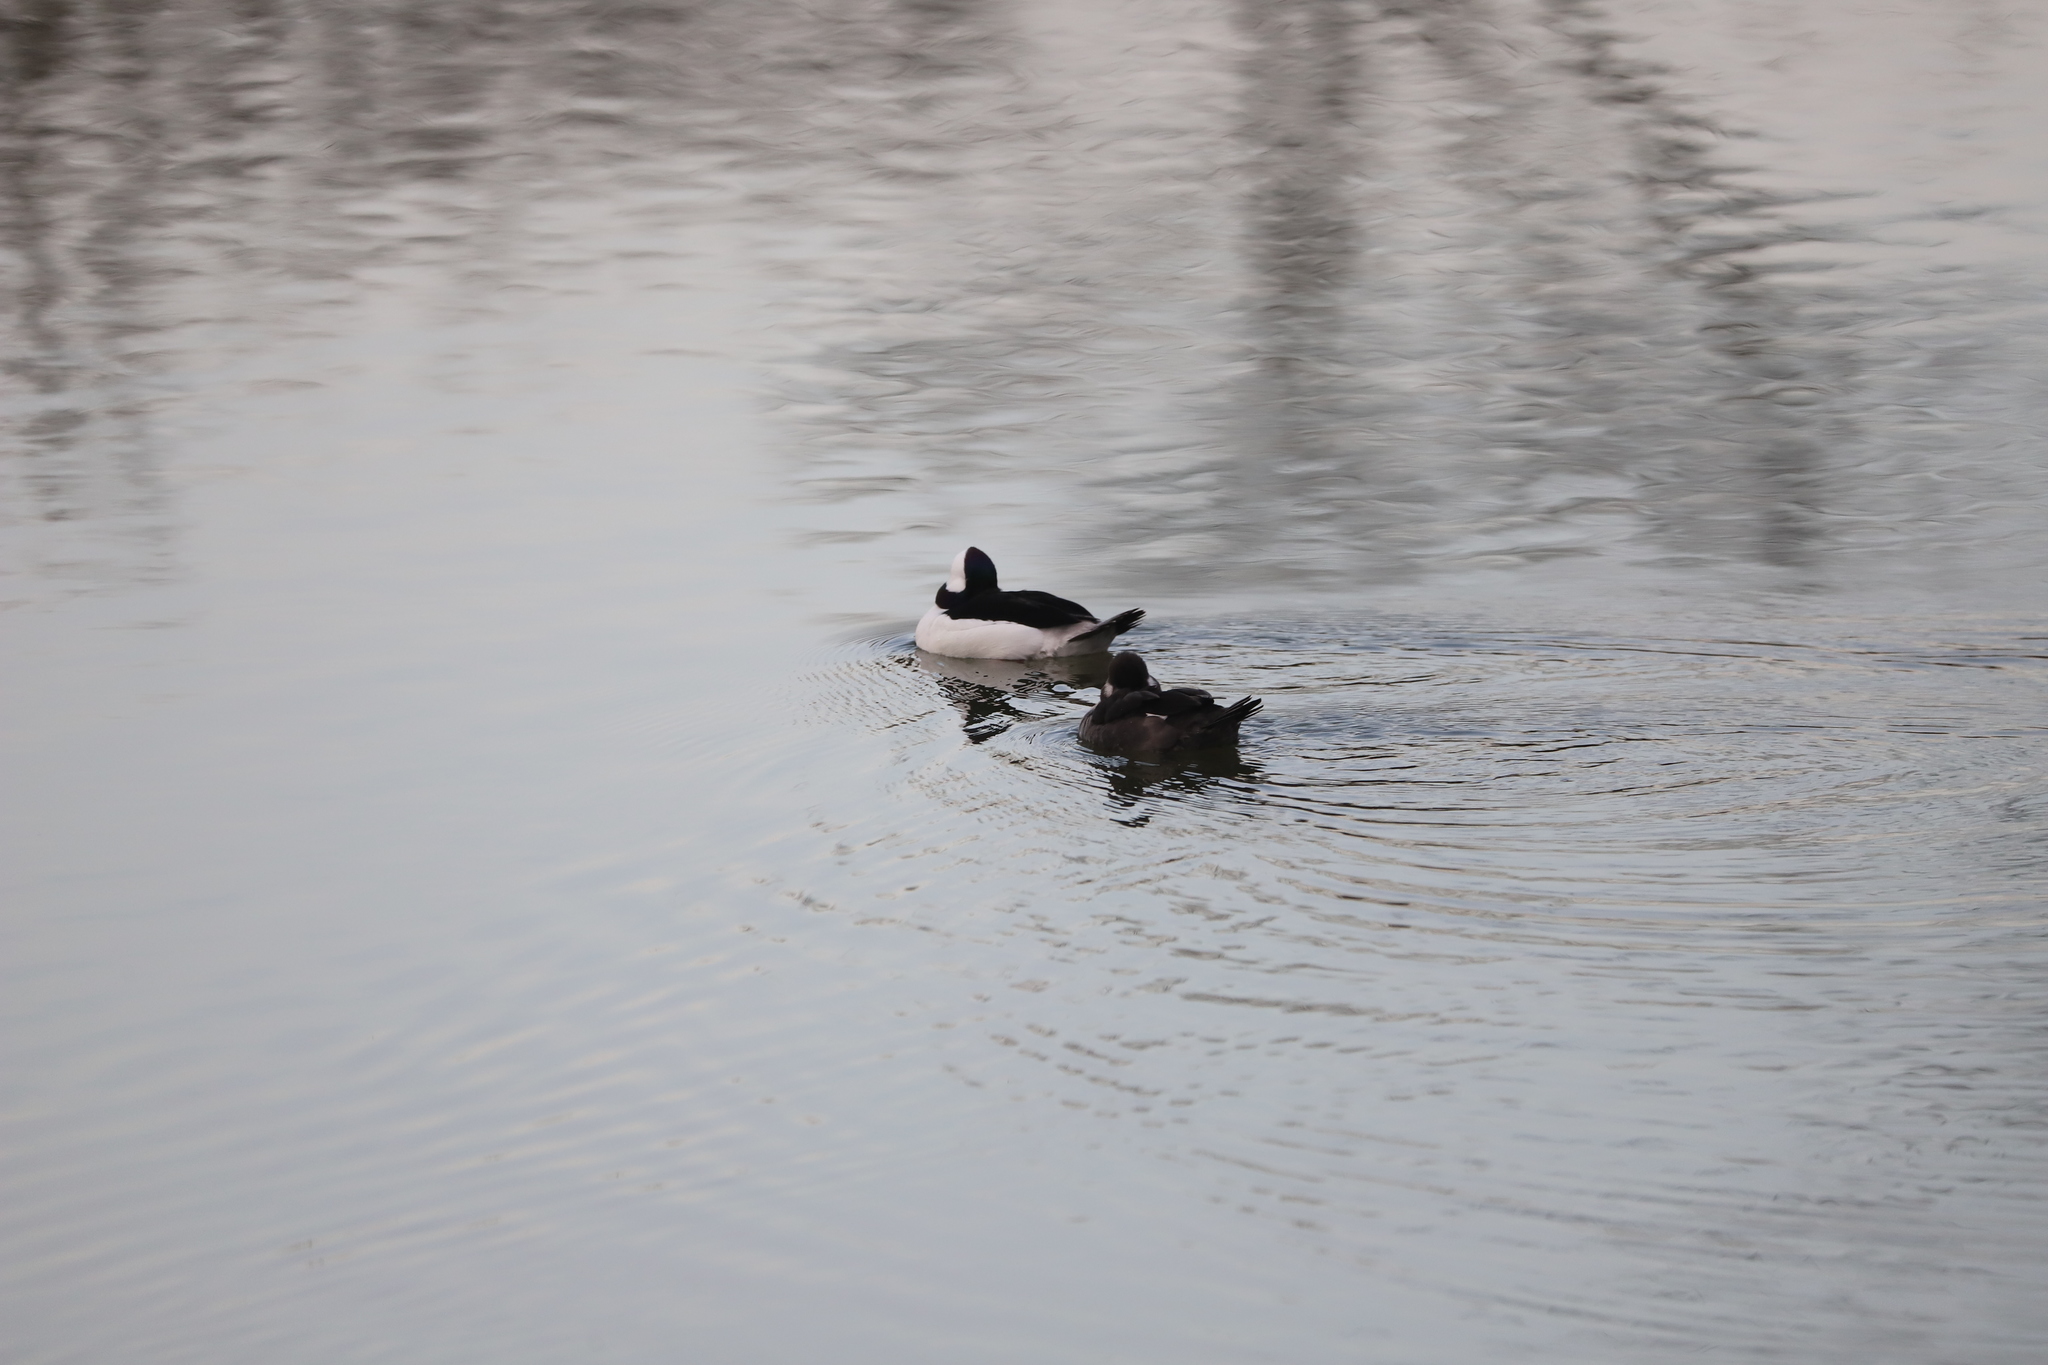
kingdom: Animalia
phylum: Chordata
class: Aves
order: Anseriformes
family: Anatidae
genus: Bucephala
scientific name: Bucephala albeola
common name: Bufflehead
